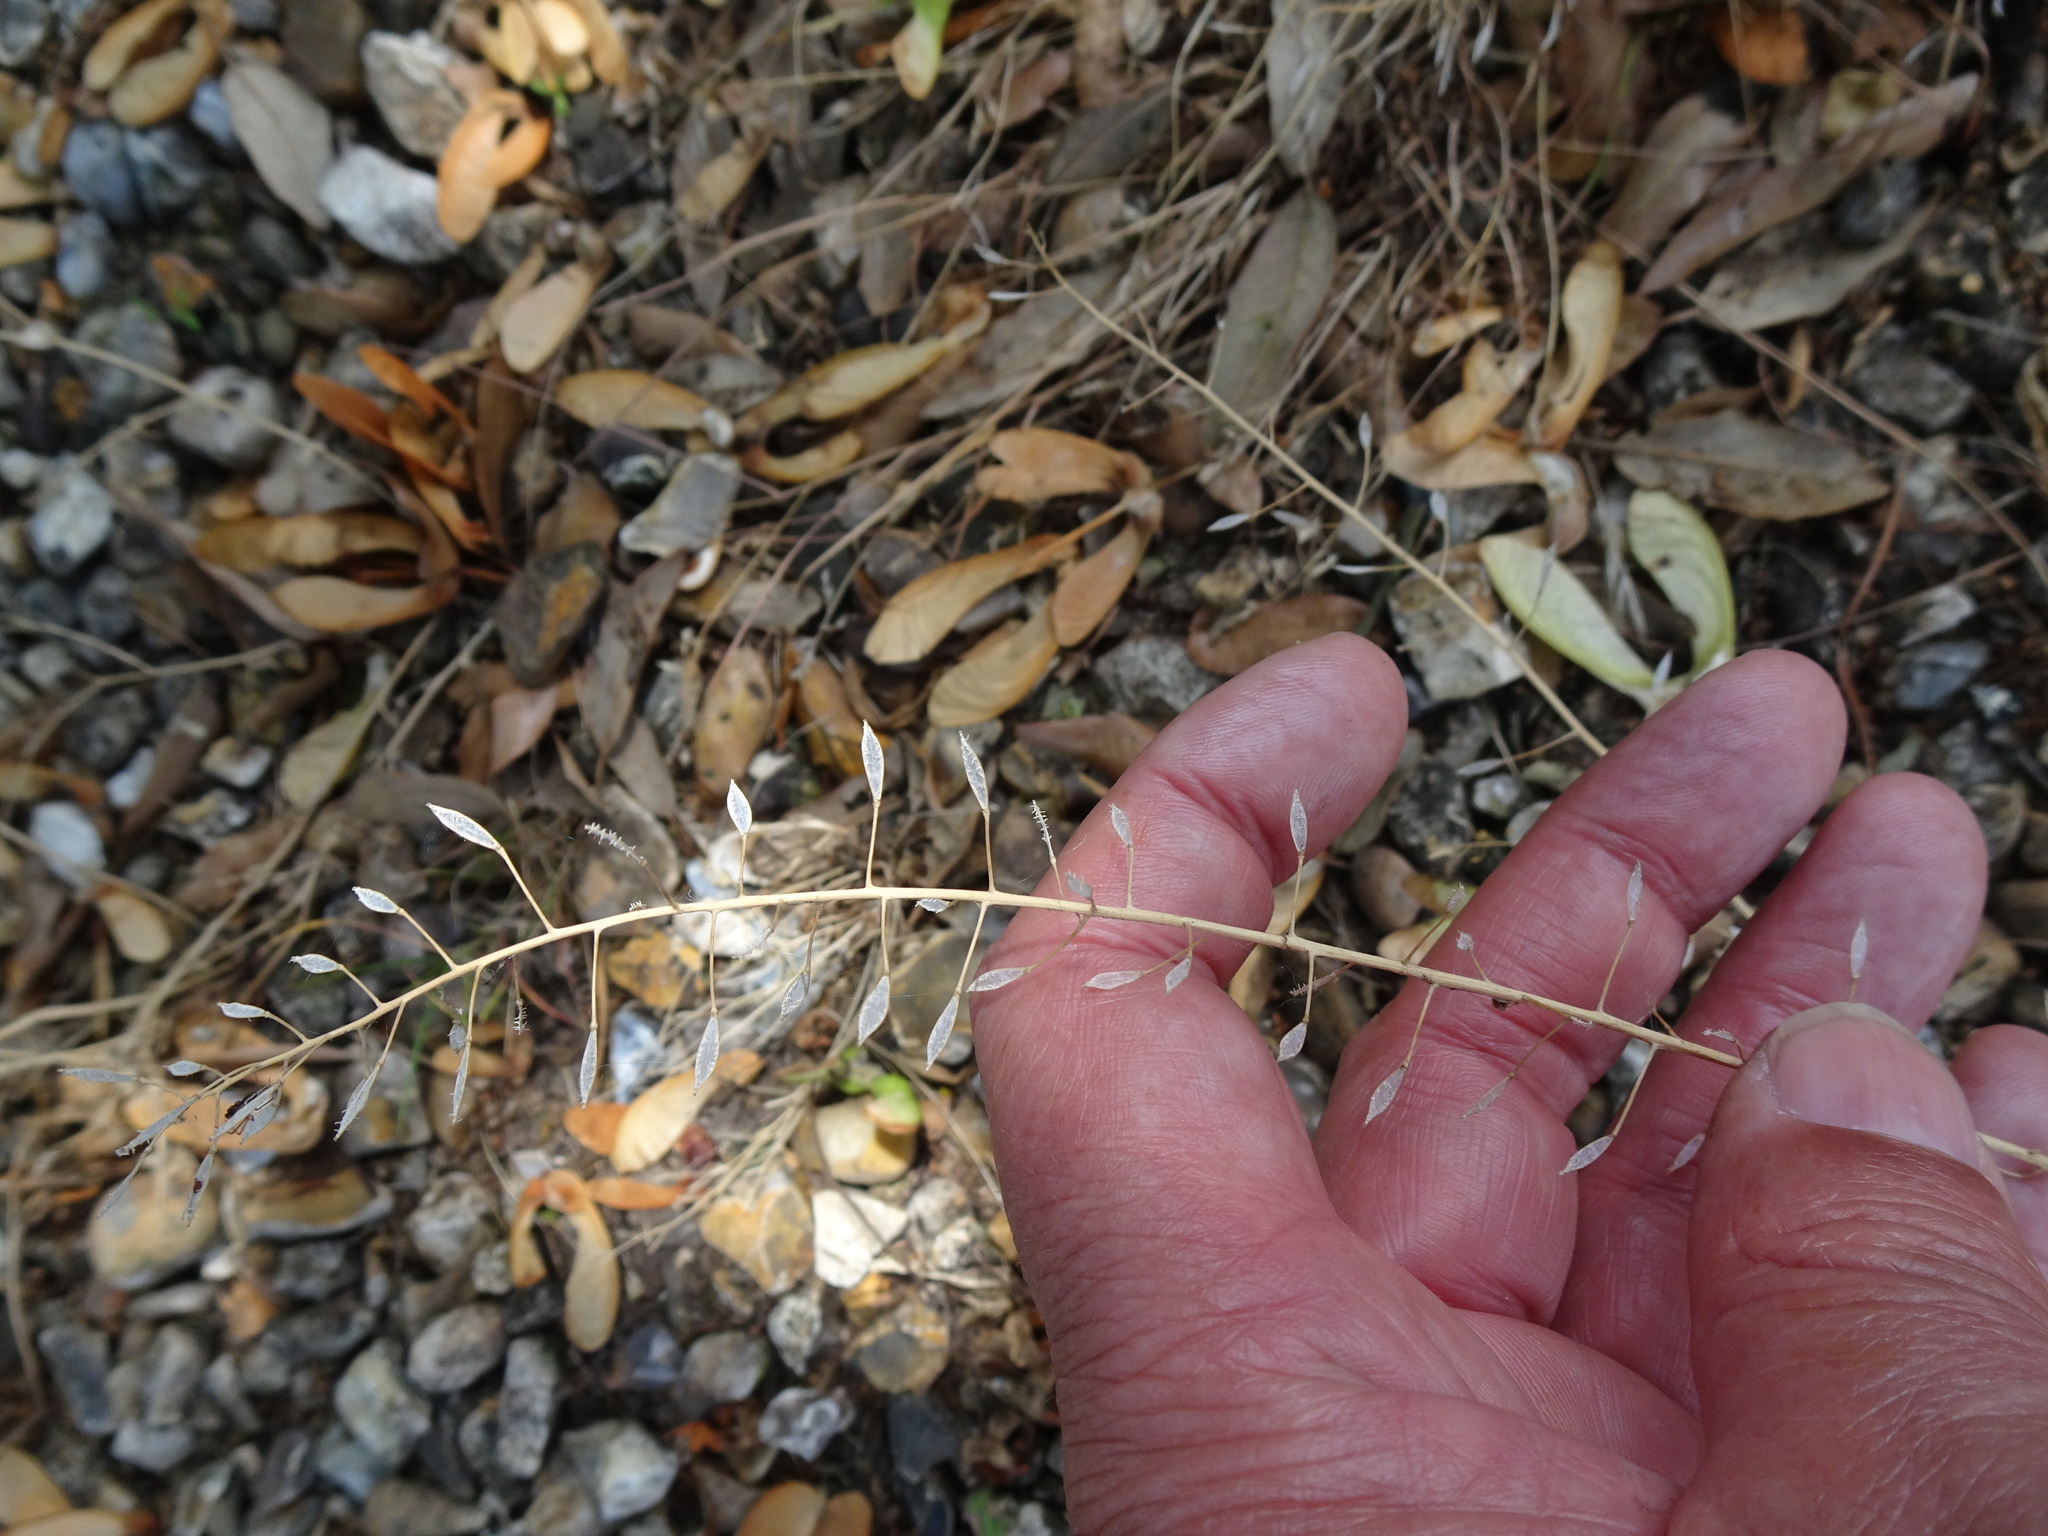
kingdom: Plantae
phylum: Tracheophyta
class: Magnoliopsida
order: Brassicales
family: Brassicaceae
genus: Capsella
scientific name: Capsella bursa-pastoris
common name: Shepherd's purse
